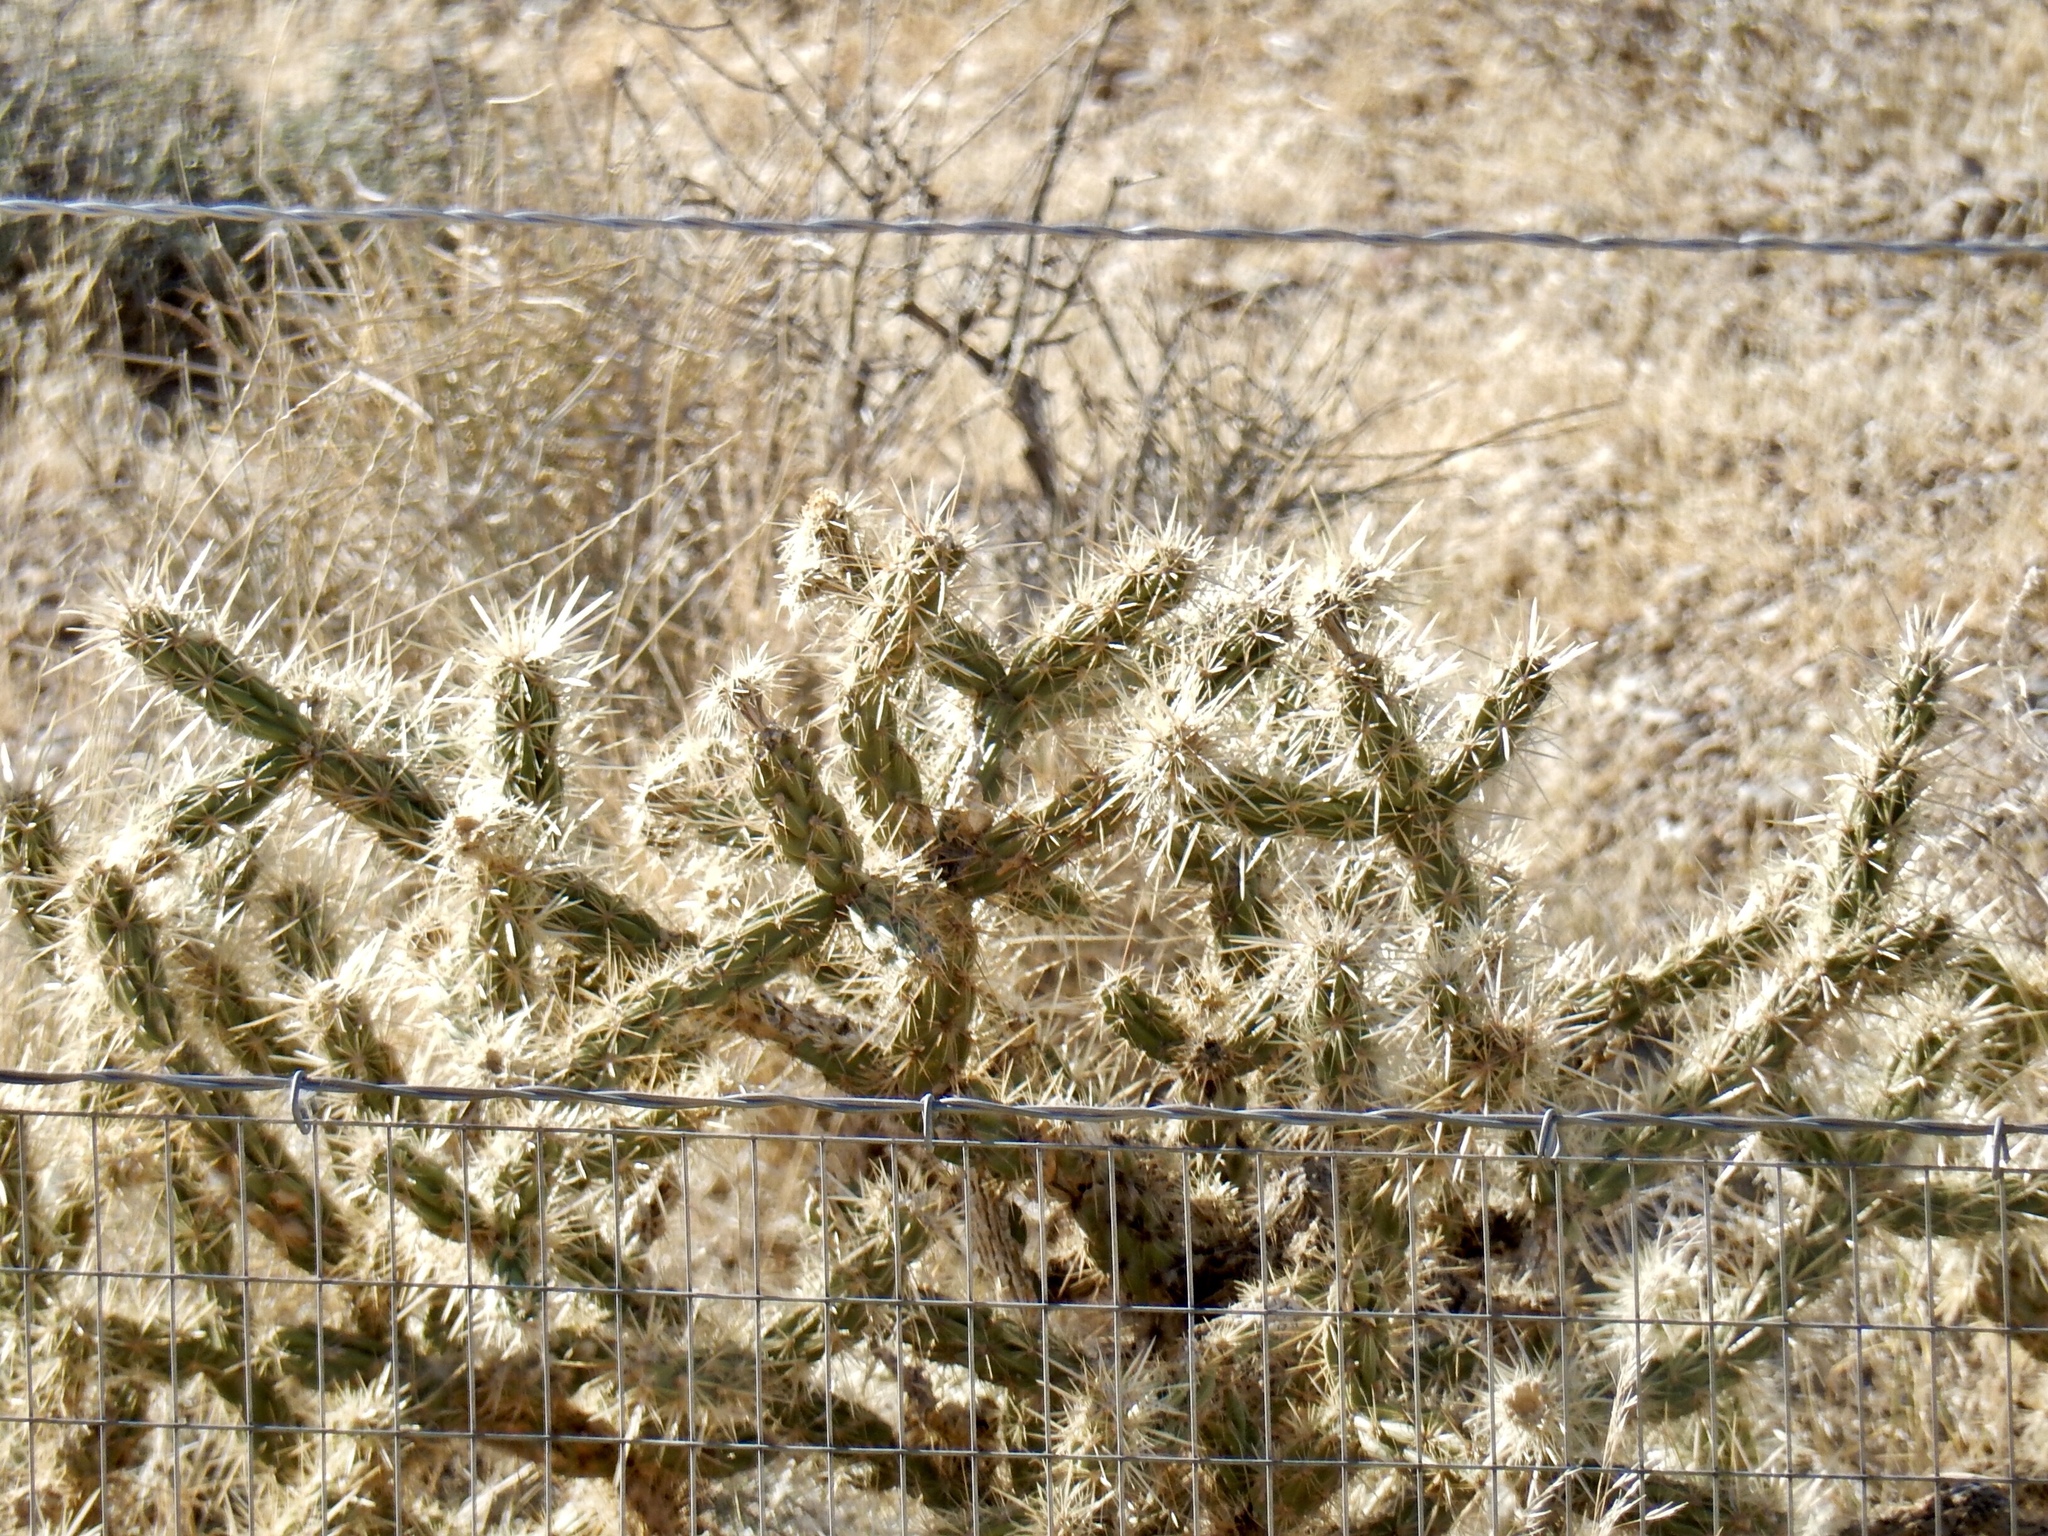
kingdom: Plantae
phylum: Tracheophyta
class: Magnoliopsida
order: Caryophyllales
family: Cactaceae
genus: Cylindropuntia
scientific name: Cylindropuntia echinocarpa
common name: Ground cholla
